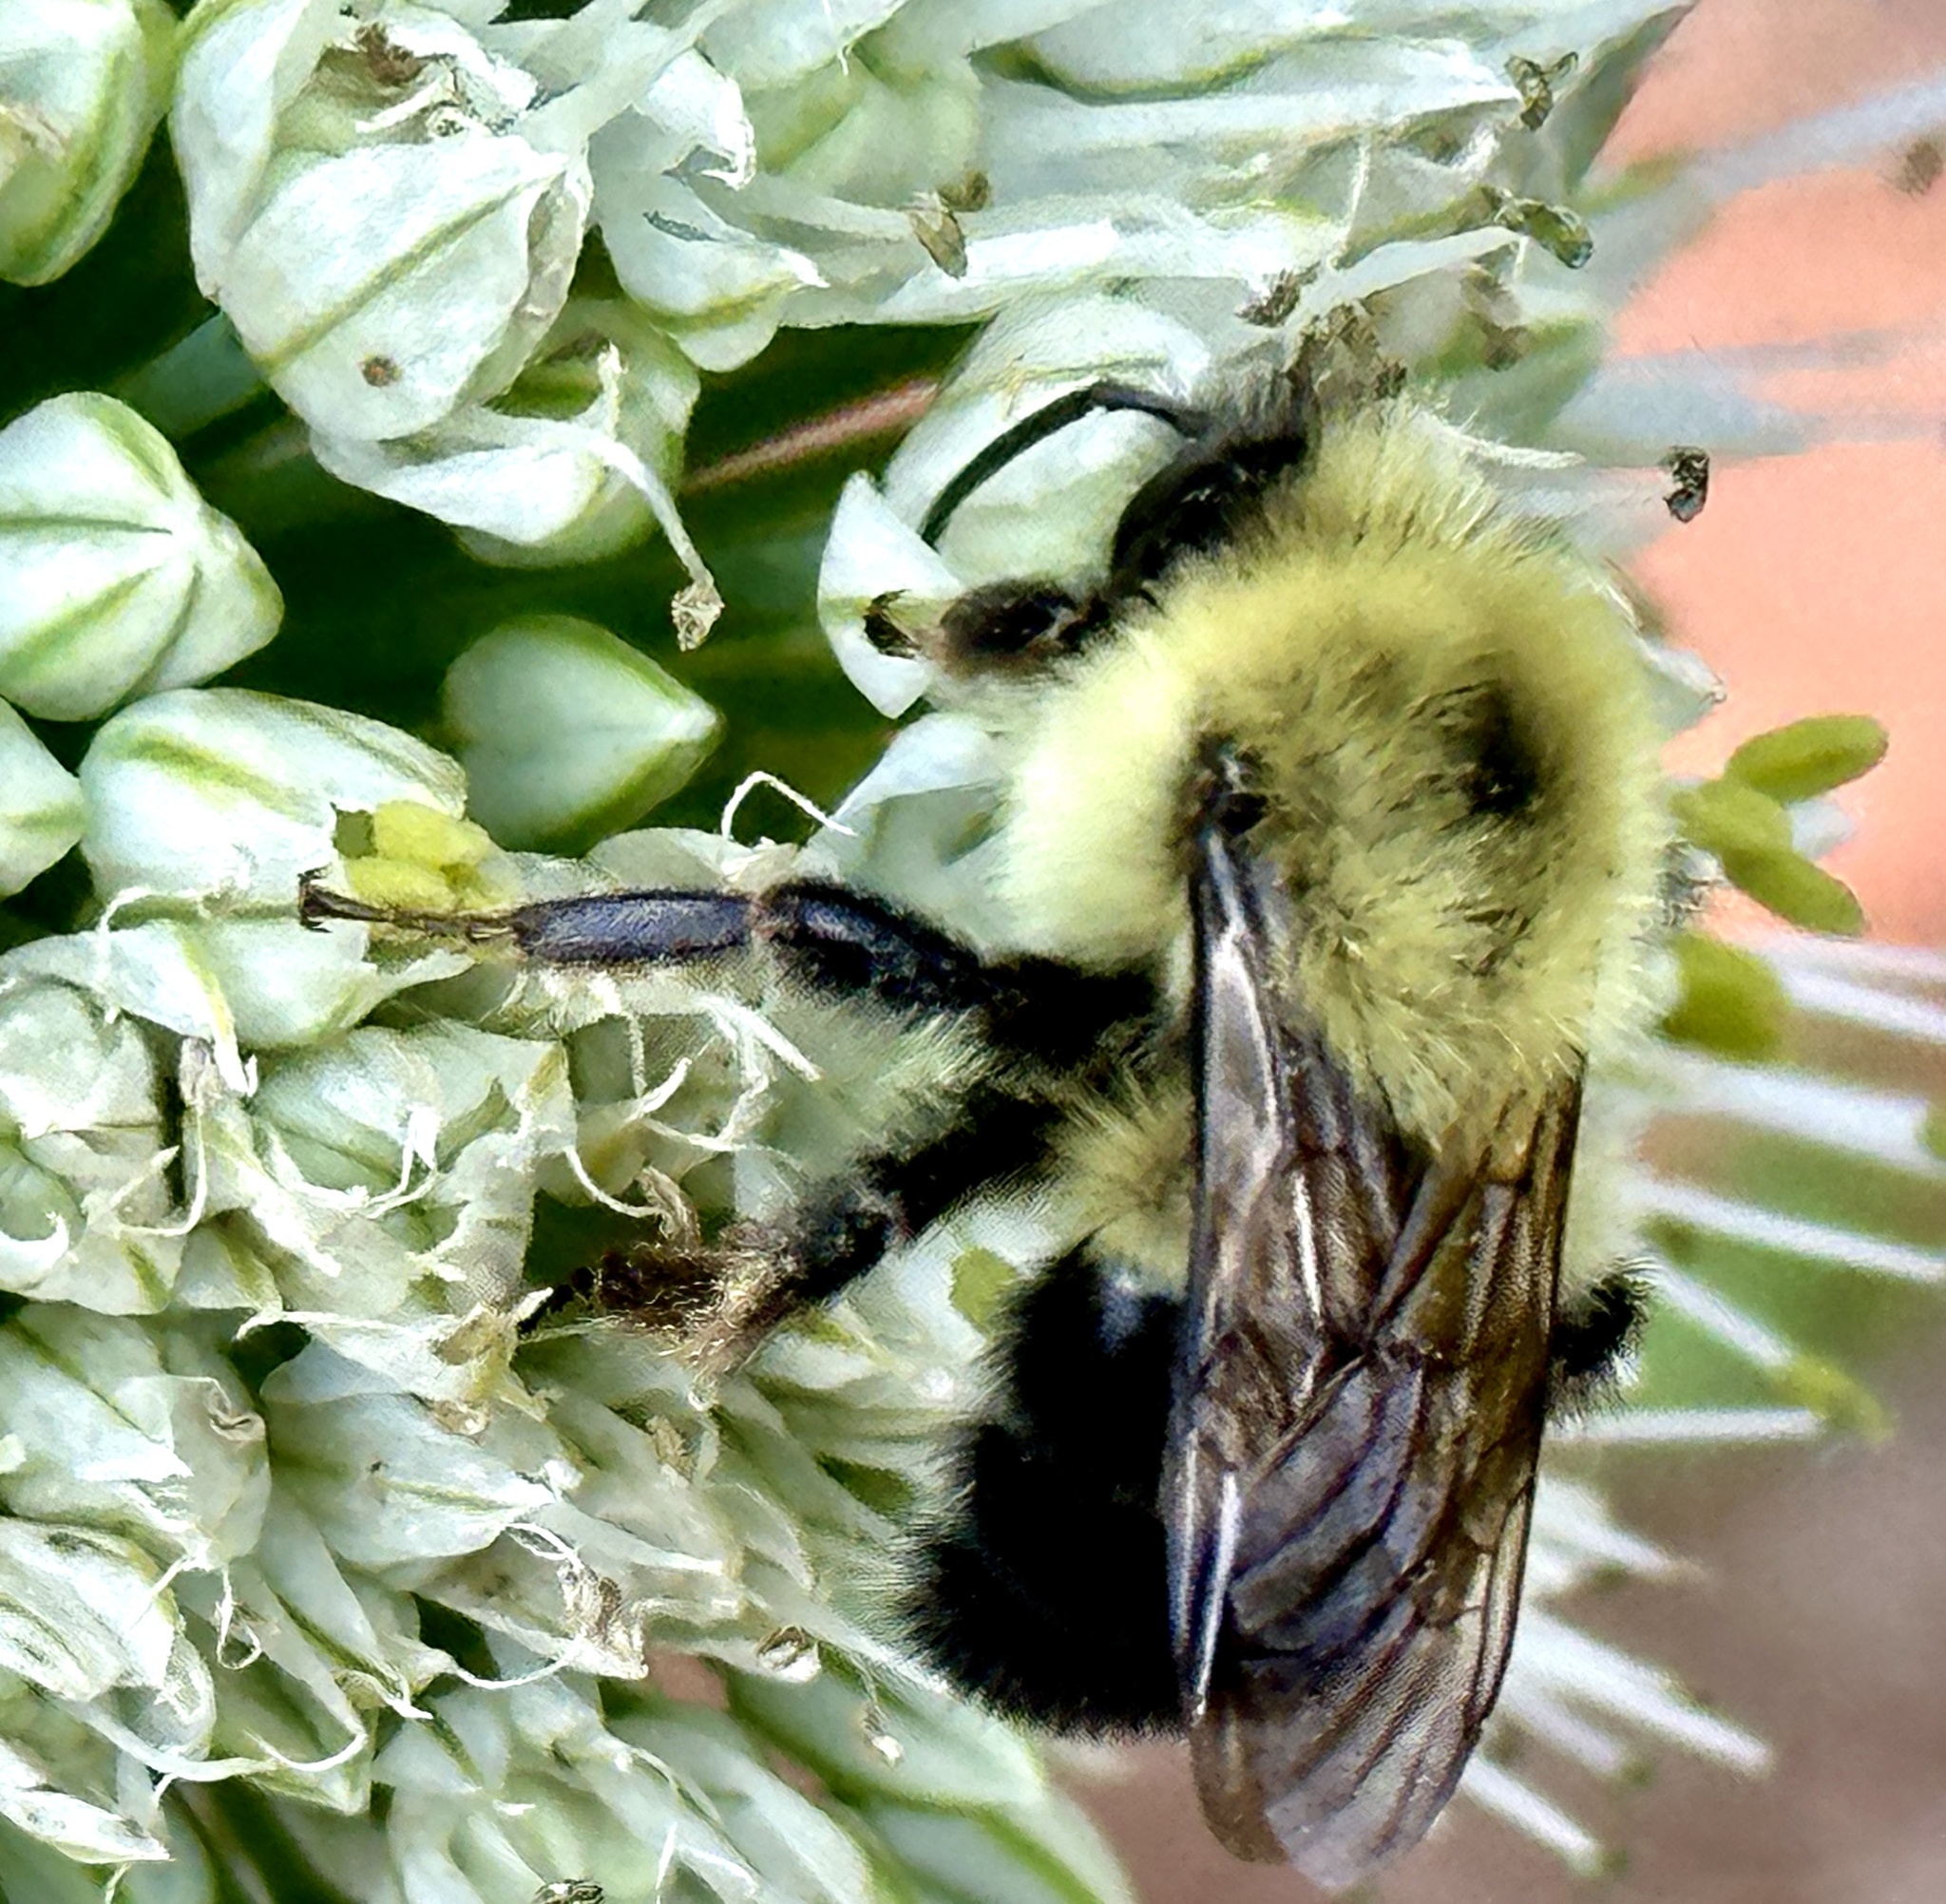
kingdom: Animalia
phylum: Arthropoda
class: Insecta
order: Hymenoptera
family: Apidae
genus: Bombus
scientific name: Bombus bimaculatus
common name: Two-spotted bumble bee
